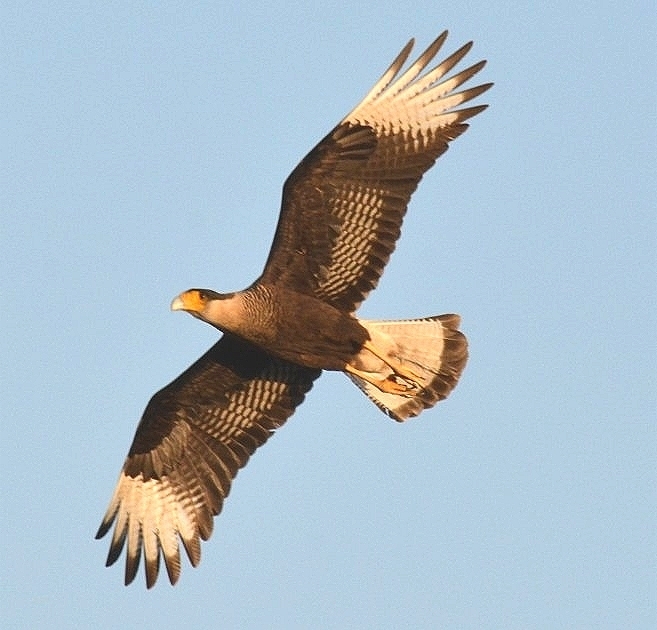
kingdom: Animalia
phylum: Chordata
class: Aves
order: Falconiformes
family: Falconidae
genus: Caracara
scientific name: Caracara plancus
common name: Southern caracara
